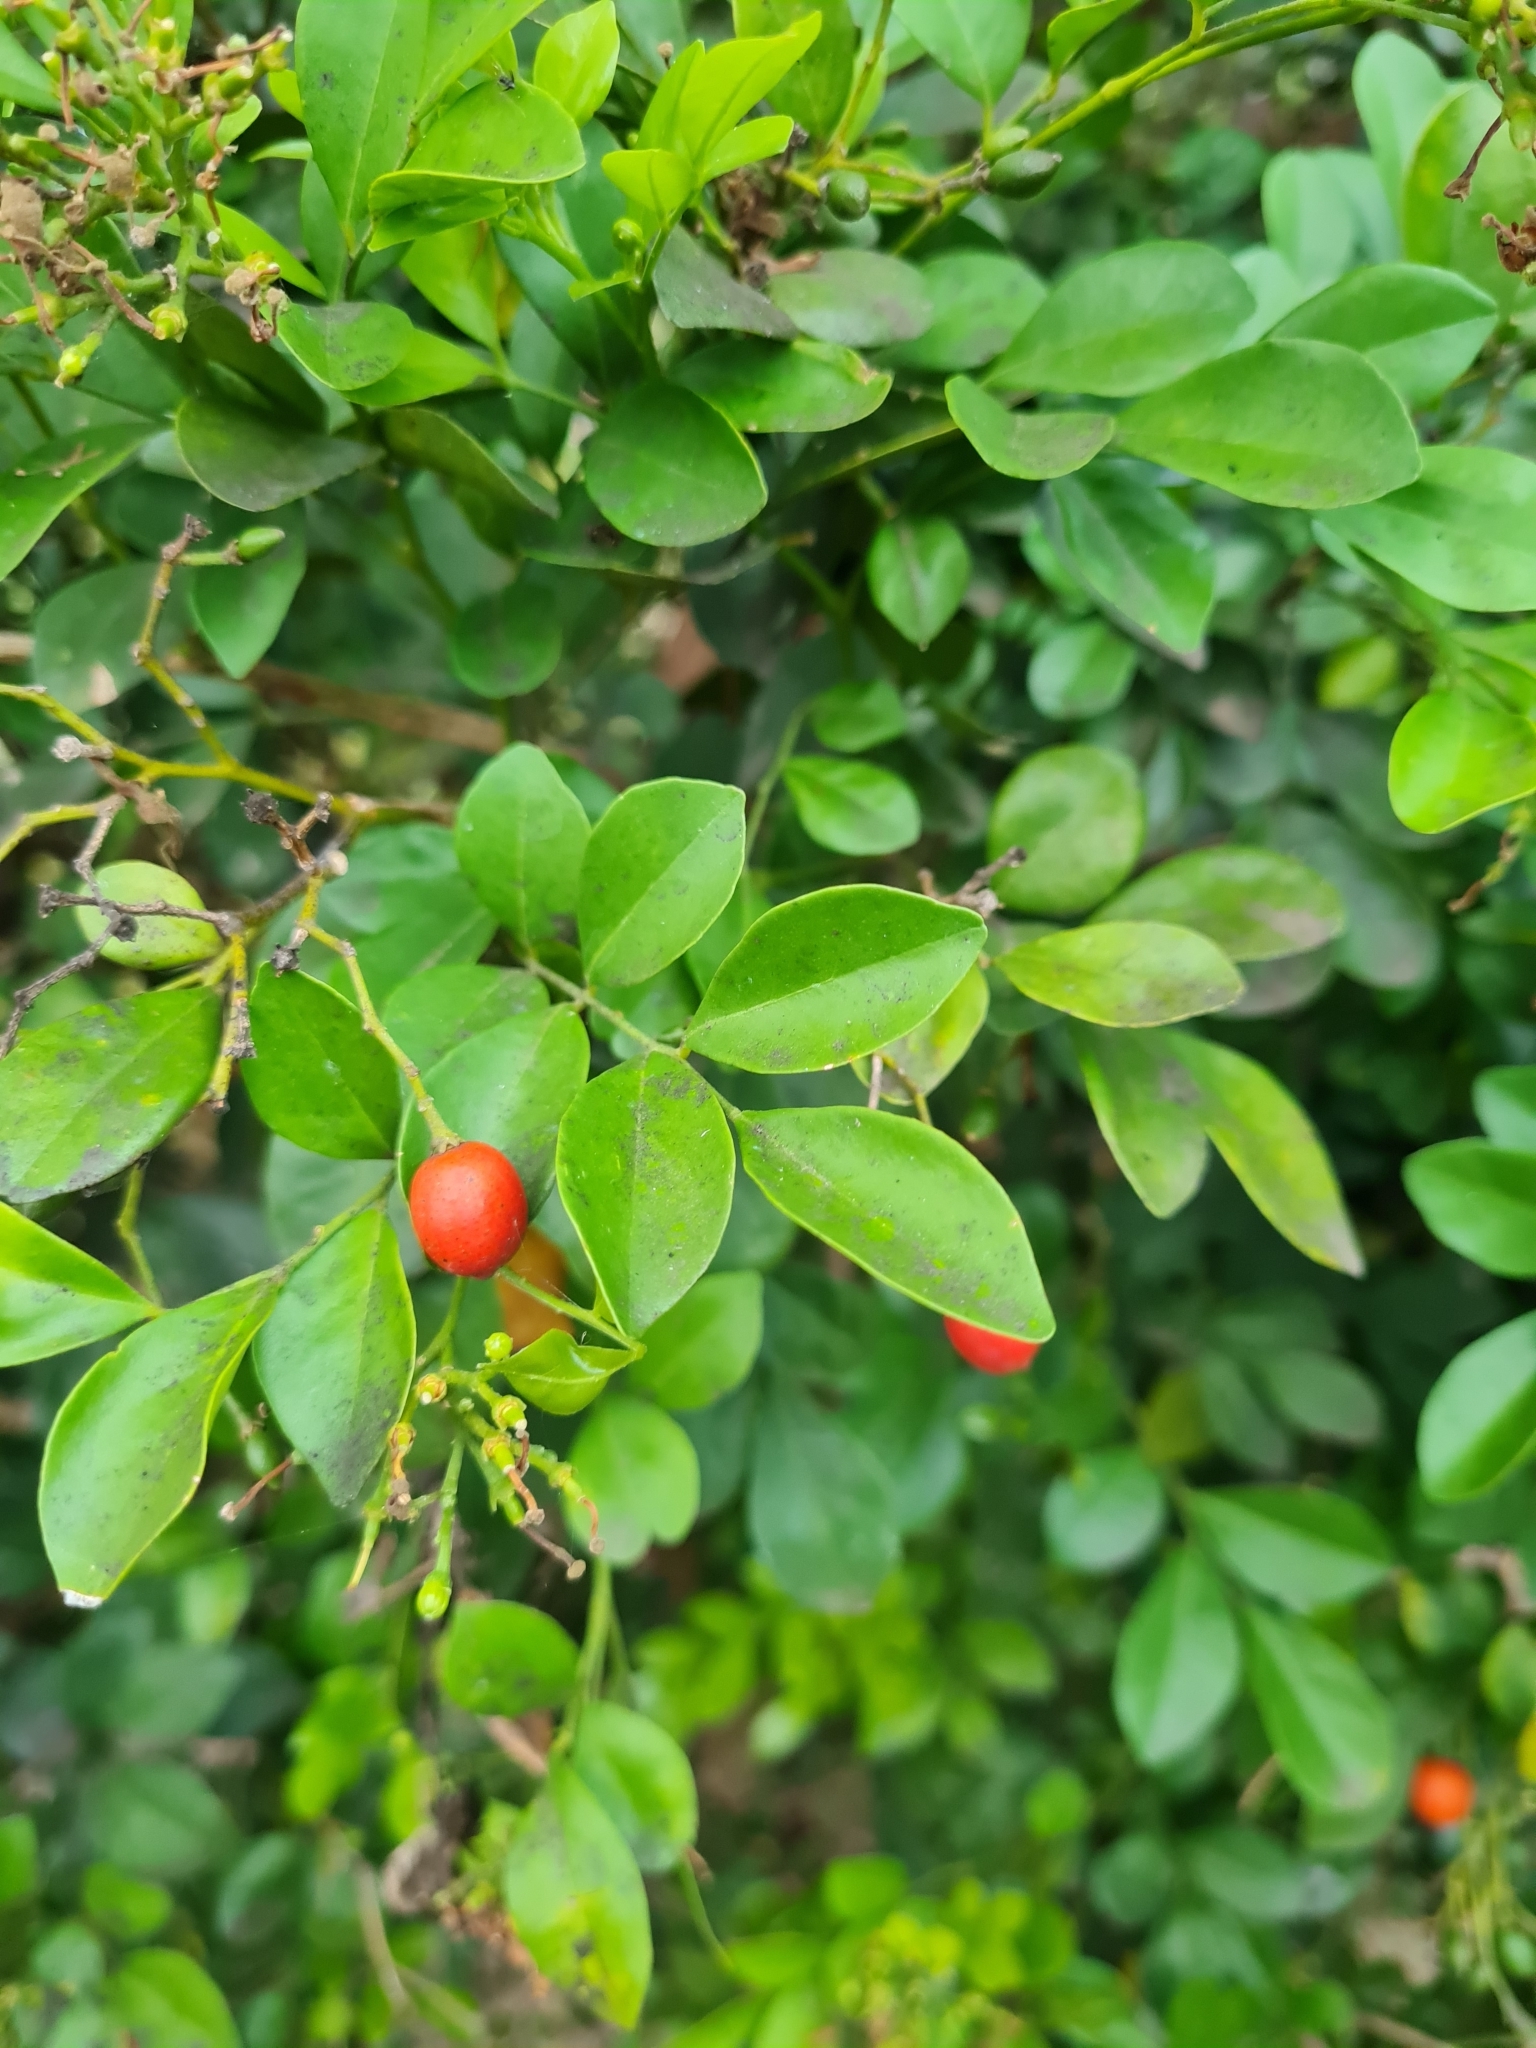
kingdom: Plantae
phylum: Tracheophyta
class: Magnoliopsida
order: Sapindales
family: Rutaceae
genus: Murraya
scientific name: Murraya paniculata
